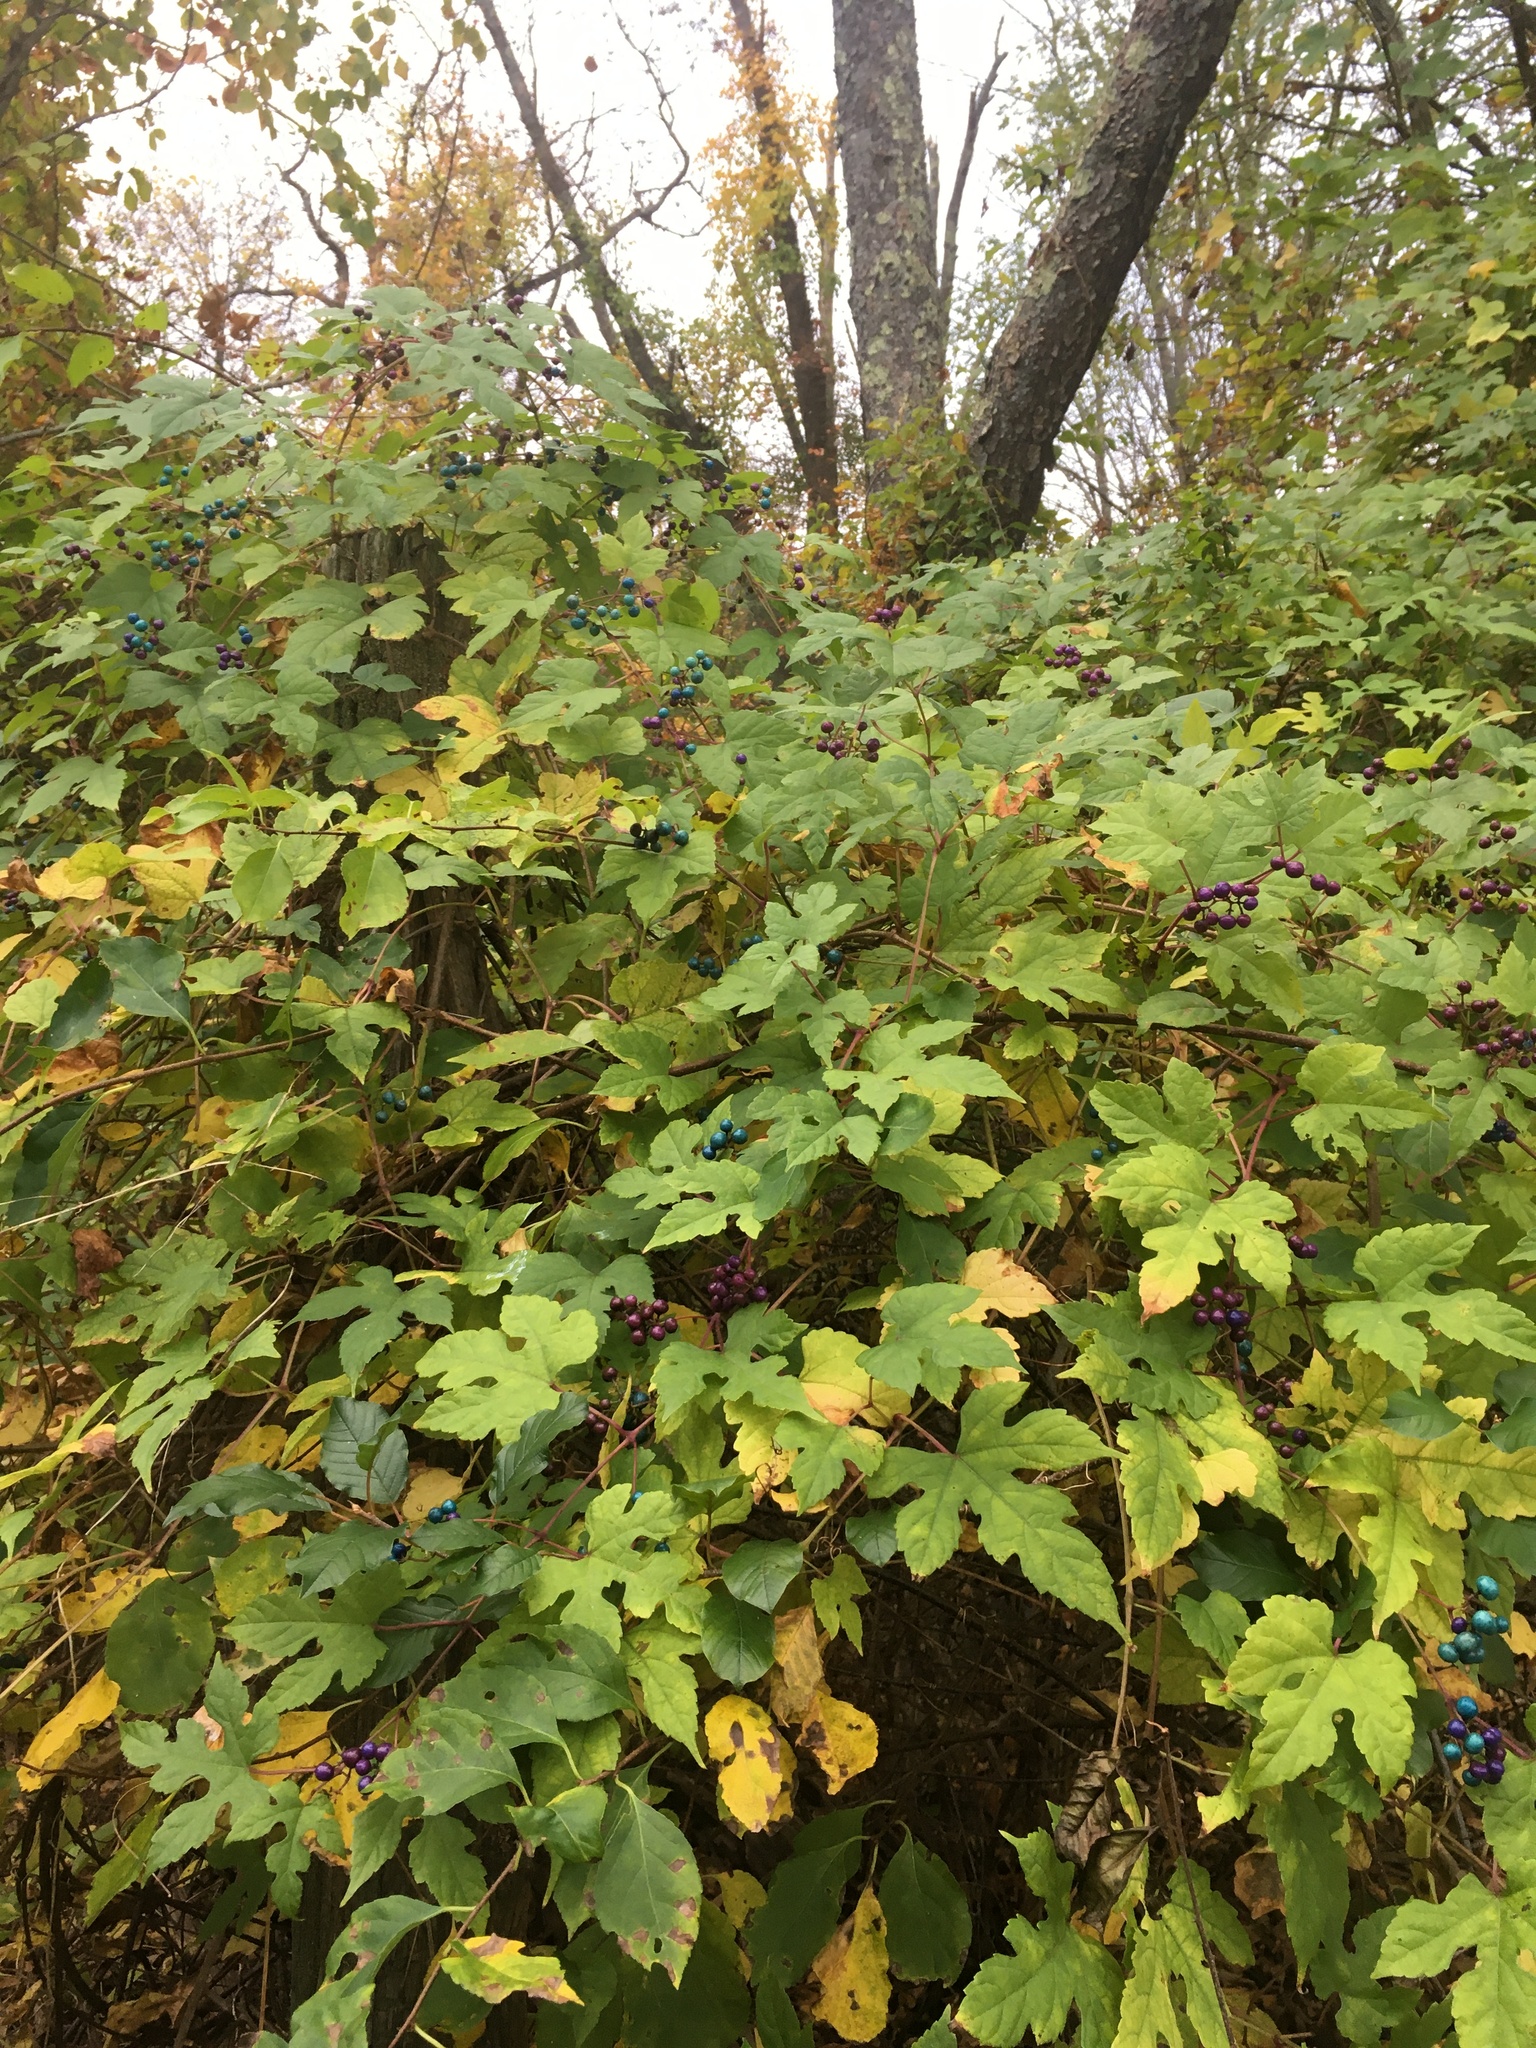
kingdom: Plantae
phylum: Tracheophyta
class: Magnoliopsida
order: Vitales
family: Vitaceae
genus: Ampelopsis
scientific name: Ampelopsis glandulosa
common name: Amur peppervine
